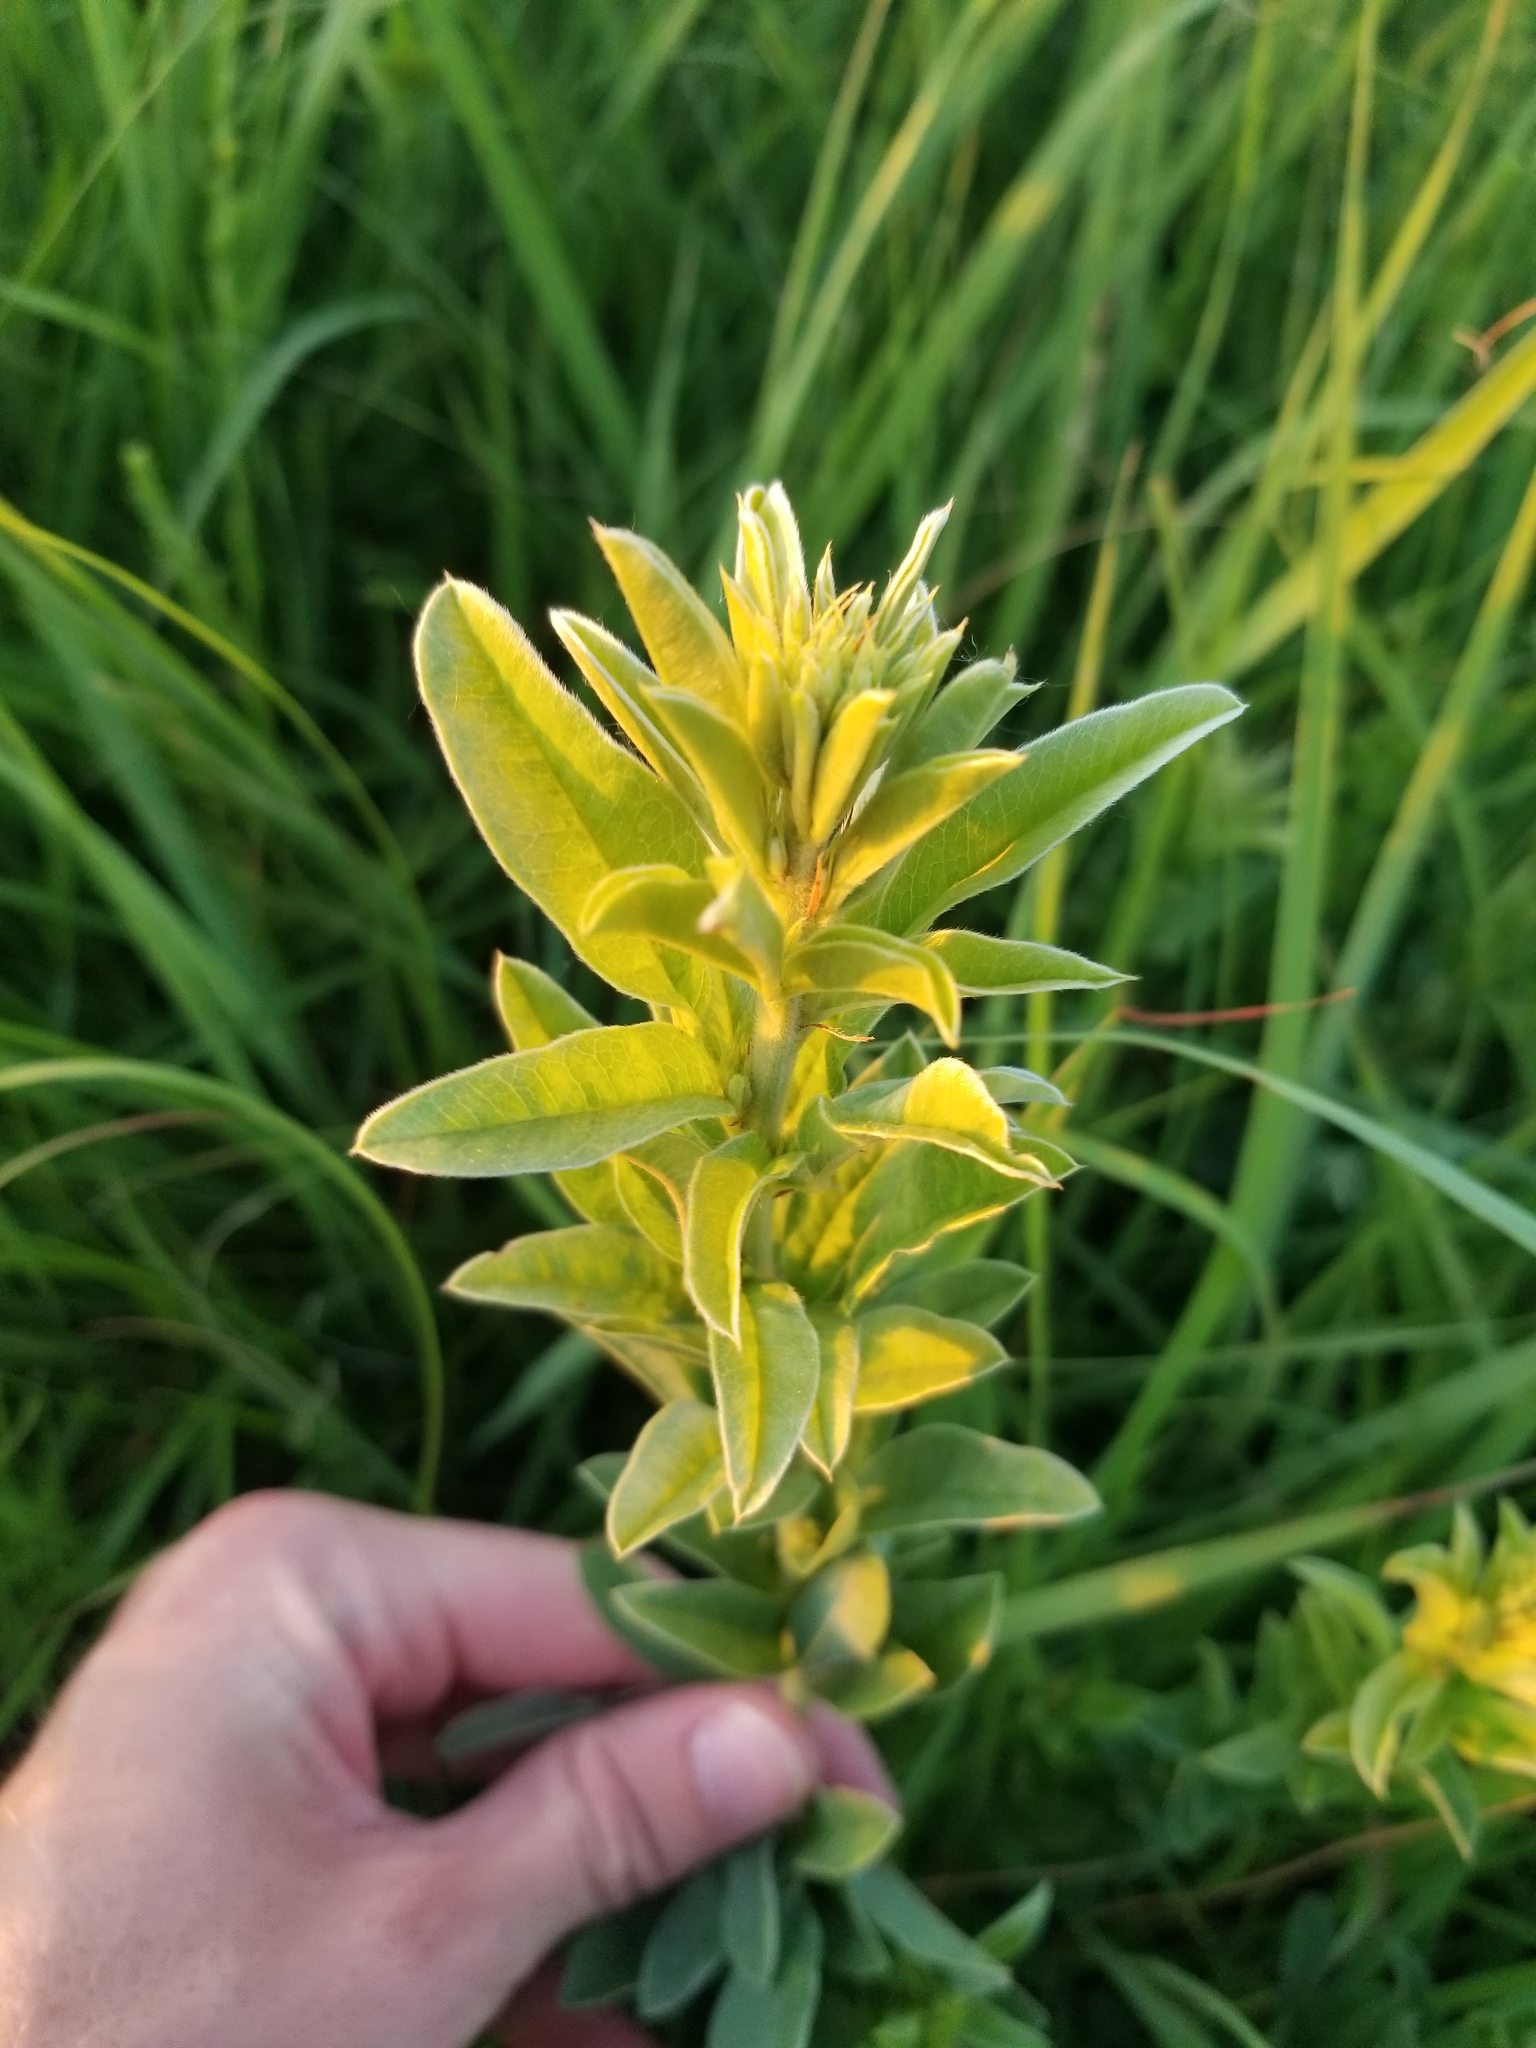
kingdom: Plantae
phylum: Tracheophyta
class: Magnoliopsida
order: Fabales
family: Fabaceae
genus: Lespedeza
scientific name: Lespedeza capitata
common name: Dusty clover
